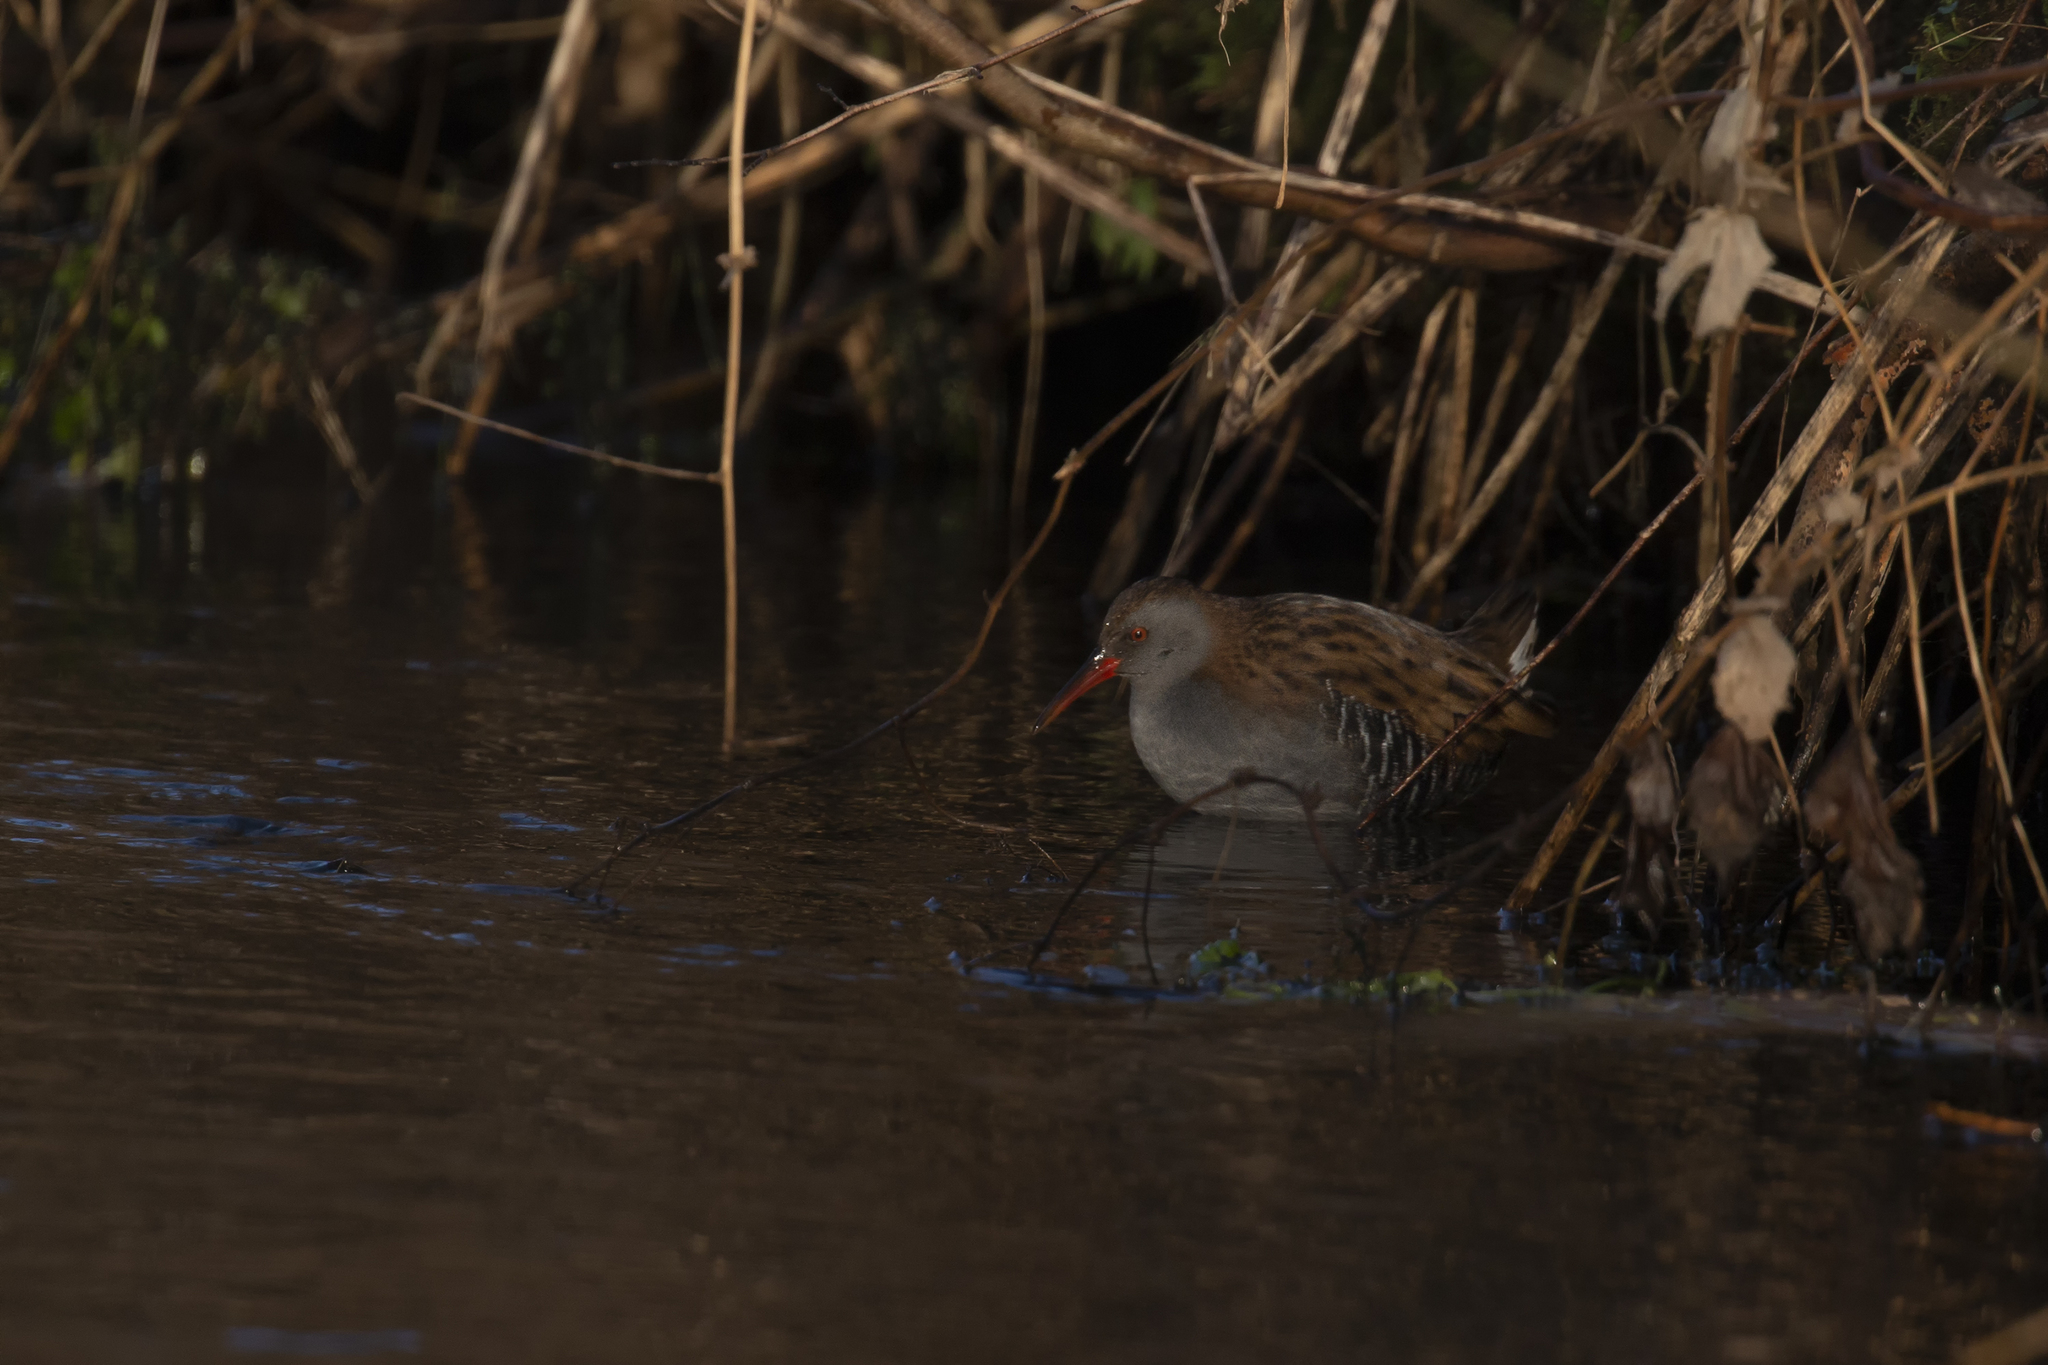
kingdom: Animalia
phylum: Chordata
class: Aves
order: Gruiformes
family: Rallidae
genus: Rallus
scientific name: Rallus aquaticus
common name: Water rail
